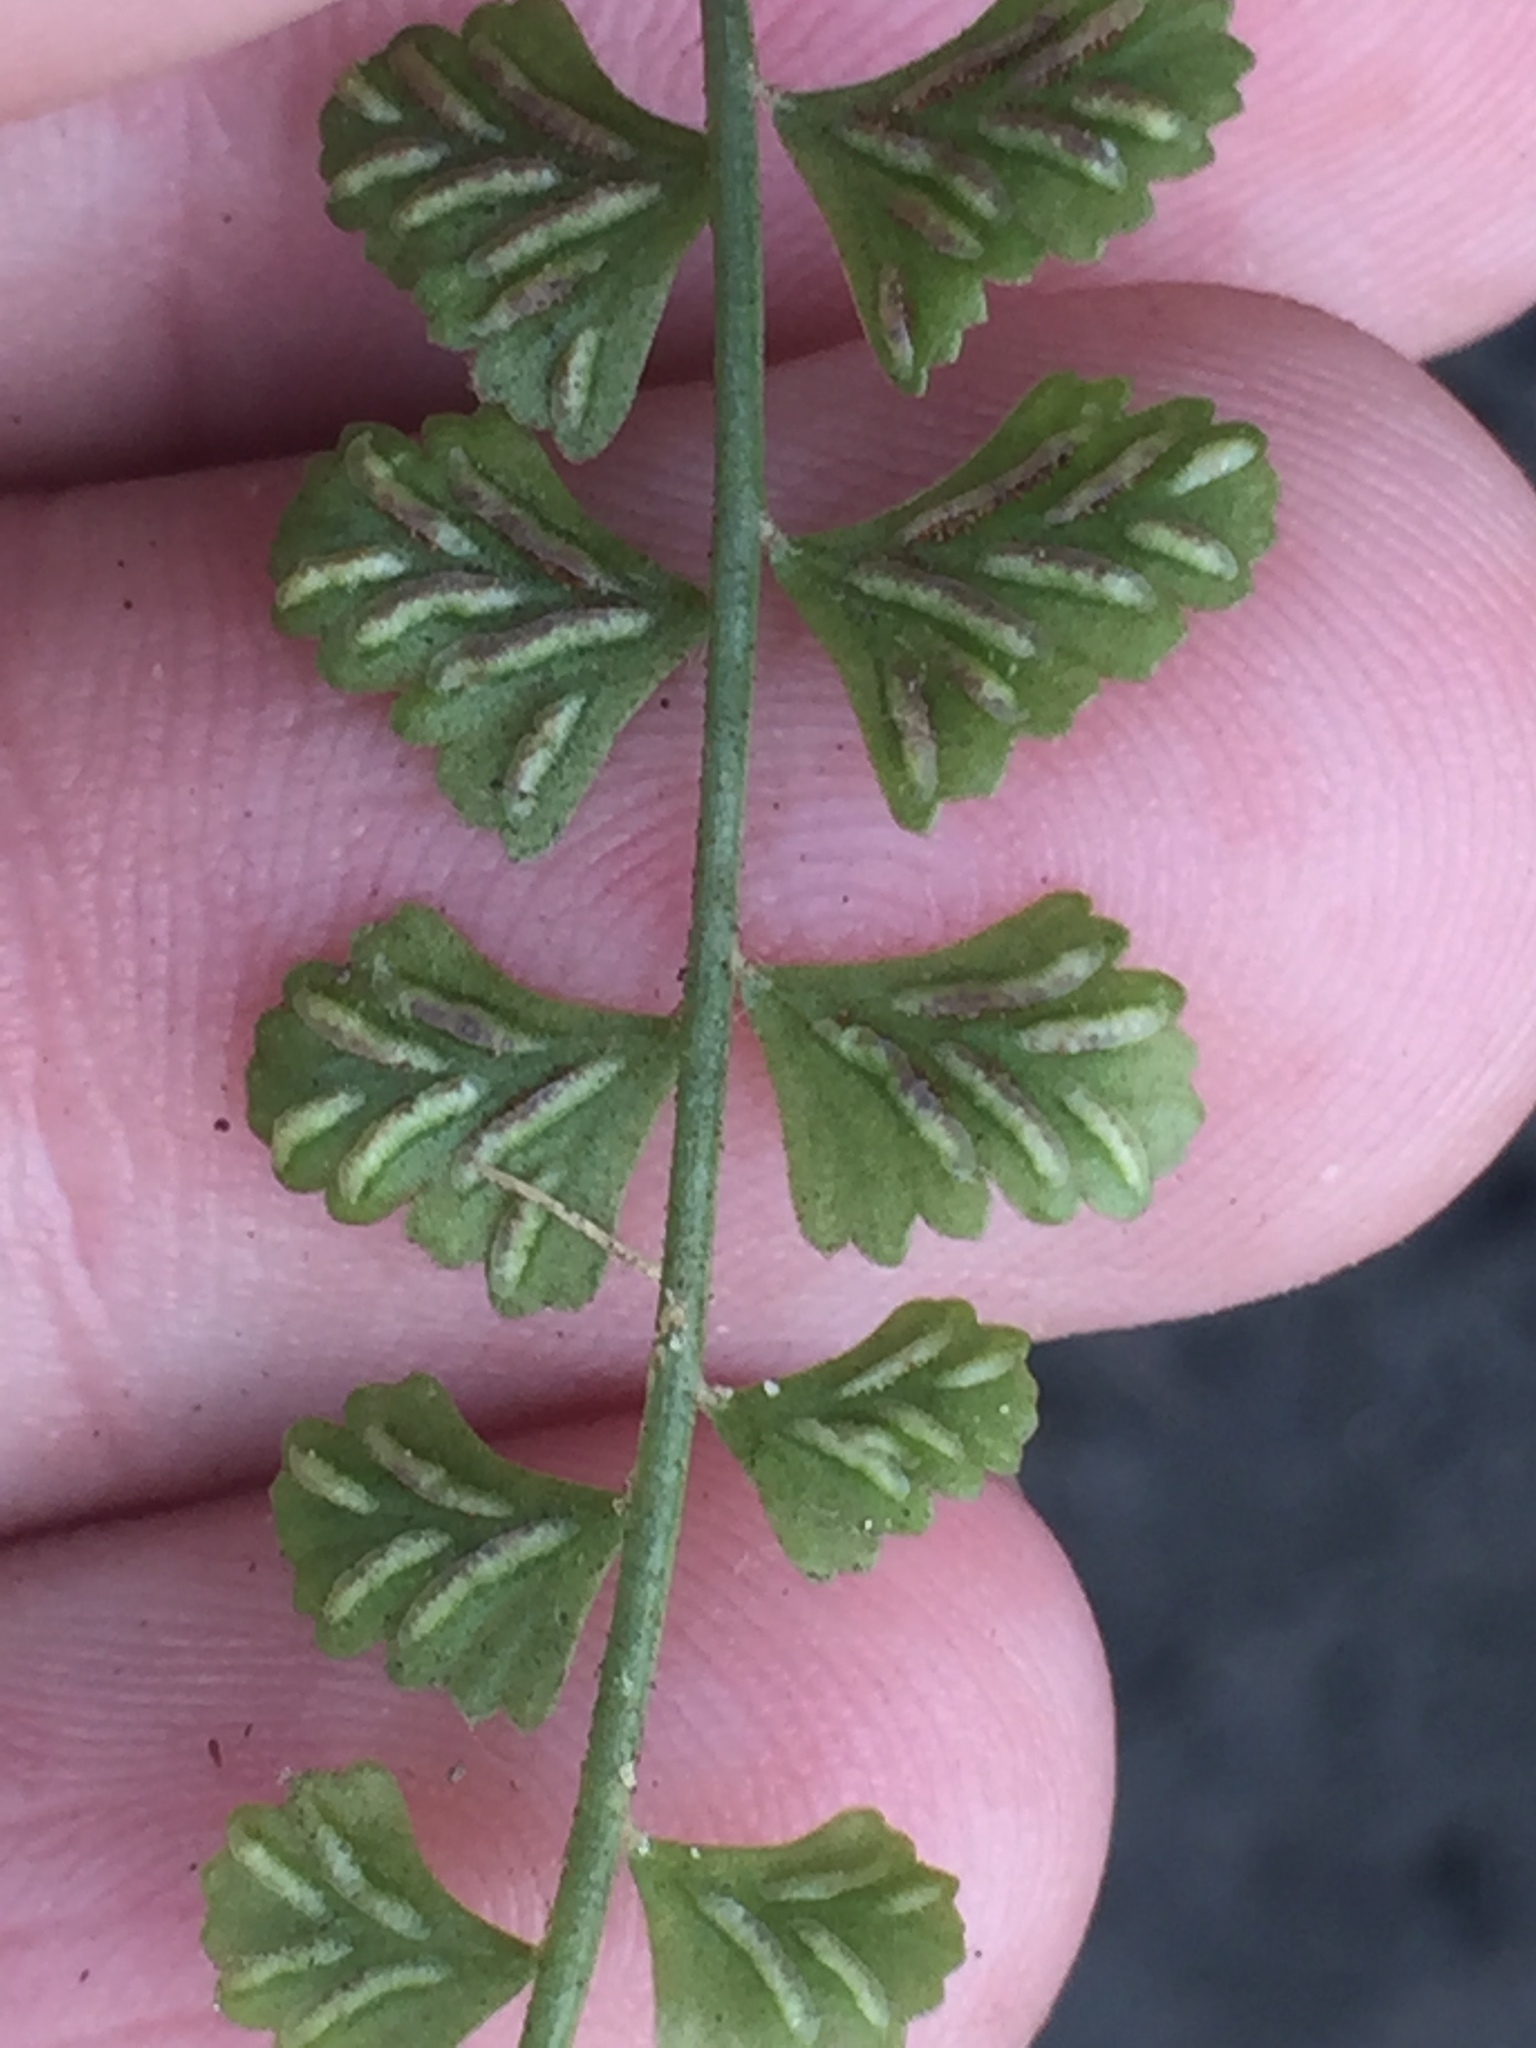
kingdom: Plantae
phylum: Tracheophyta
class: Polypodiopsida
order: Polypodiales
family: Aspleniaceae
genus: Asplenium
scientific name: Asplenium flabellifolium
